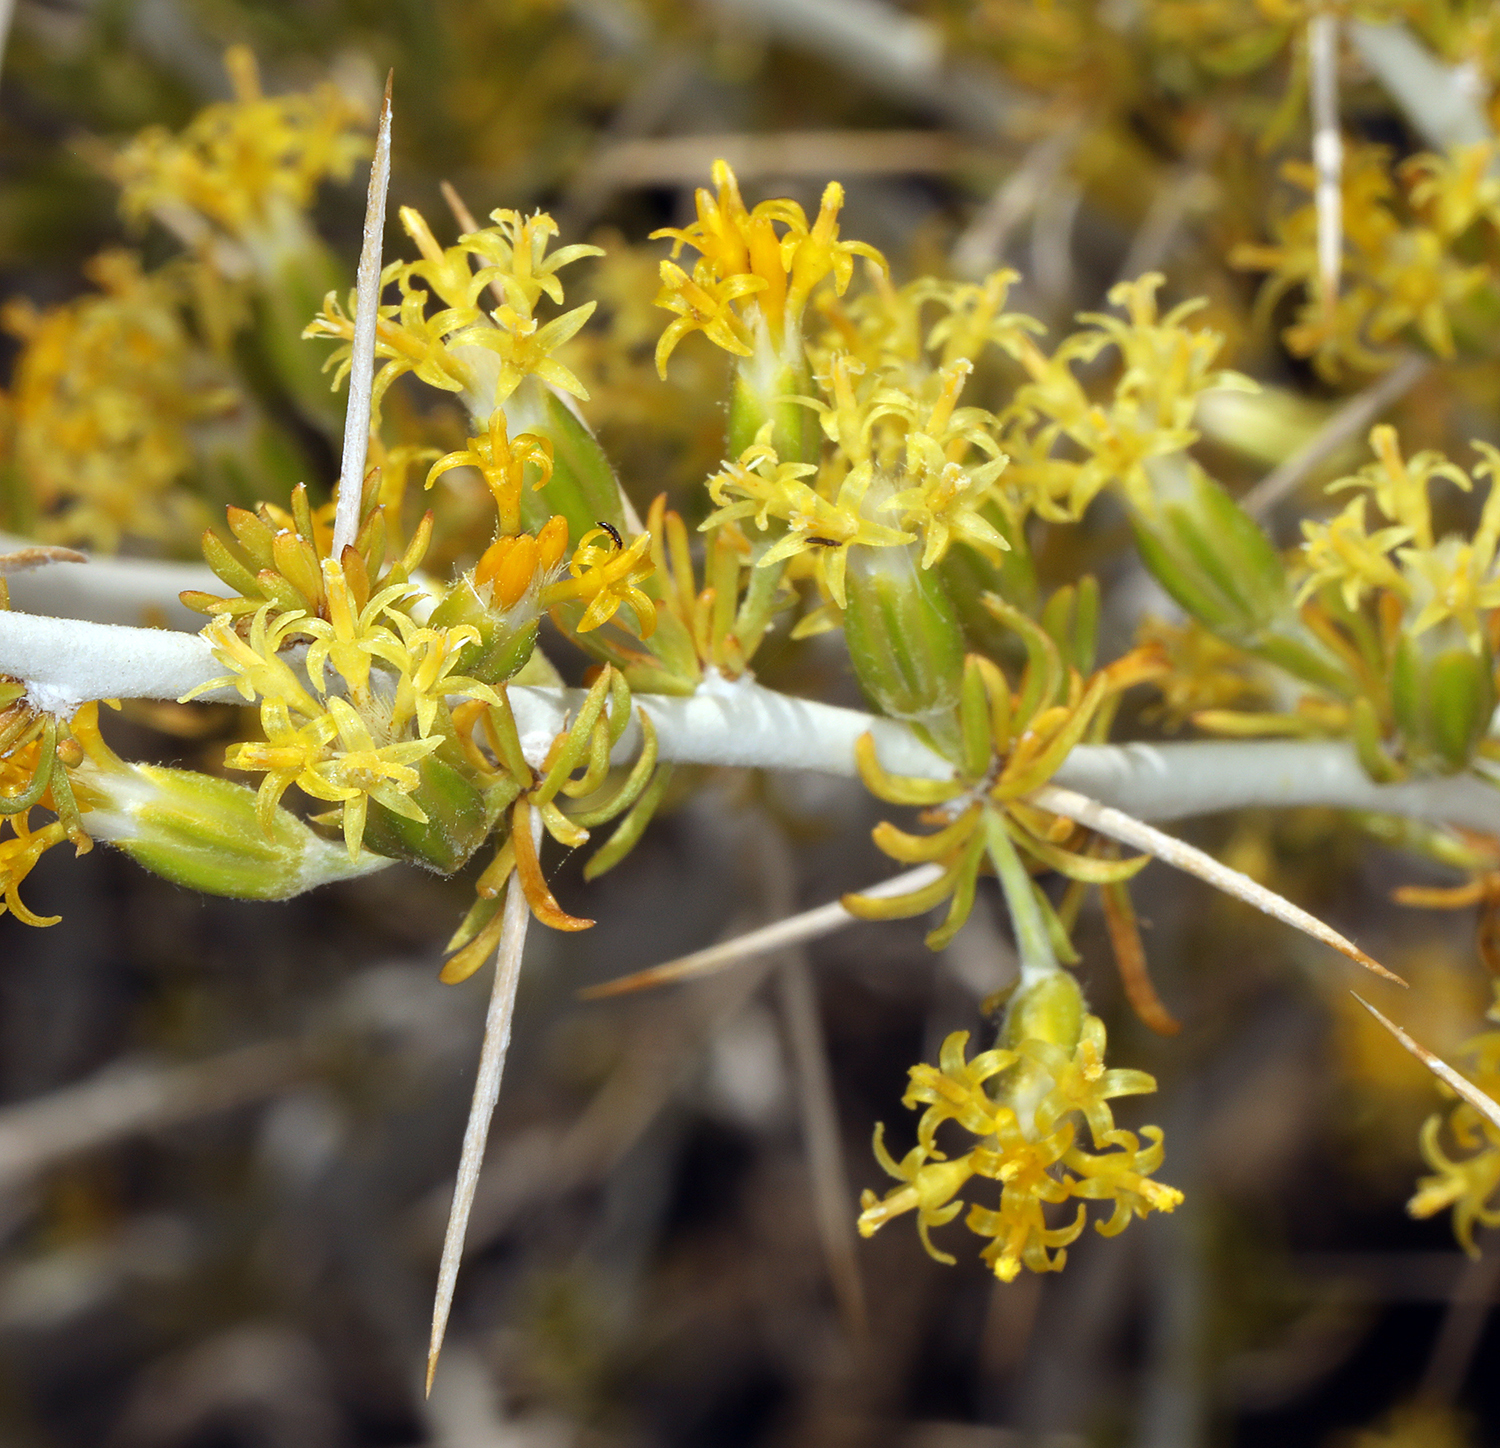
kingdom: Plantae
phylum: Tracheophyta
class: Magnoliopsida
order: Asterales
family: Asteraceae
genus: Tetradymia
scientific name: Tetradymia axillaris
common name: Long-spine horsebrush
